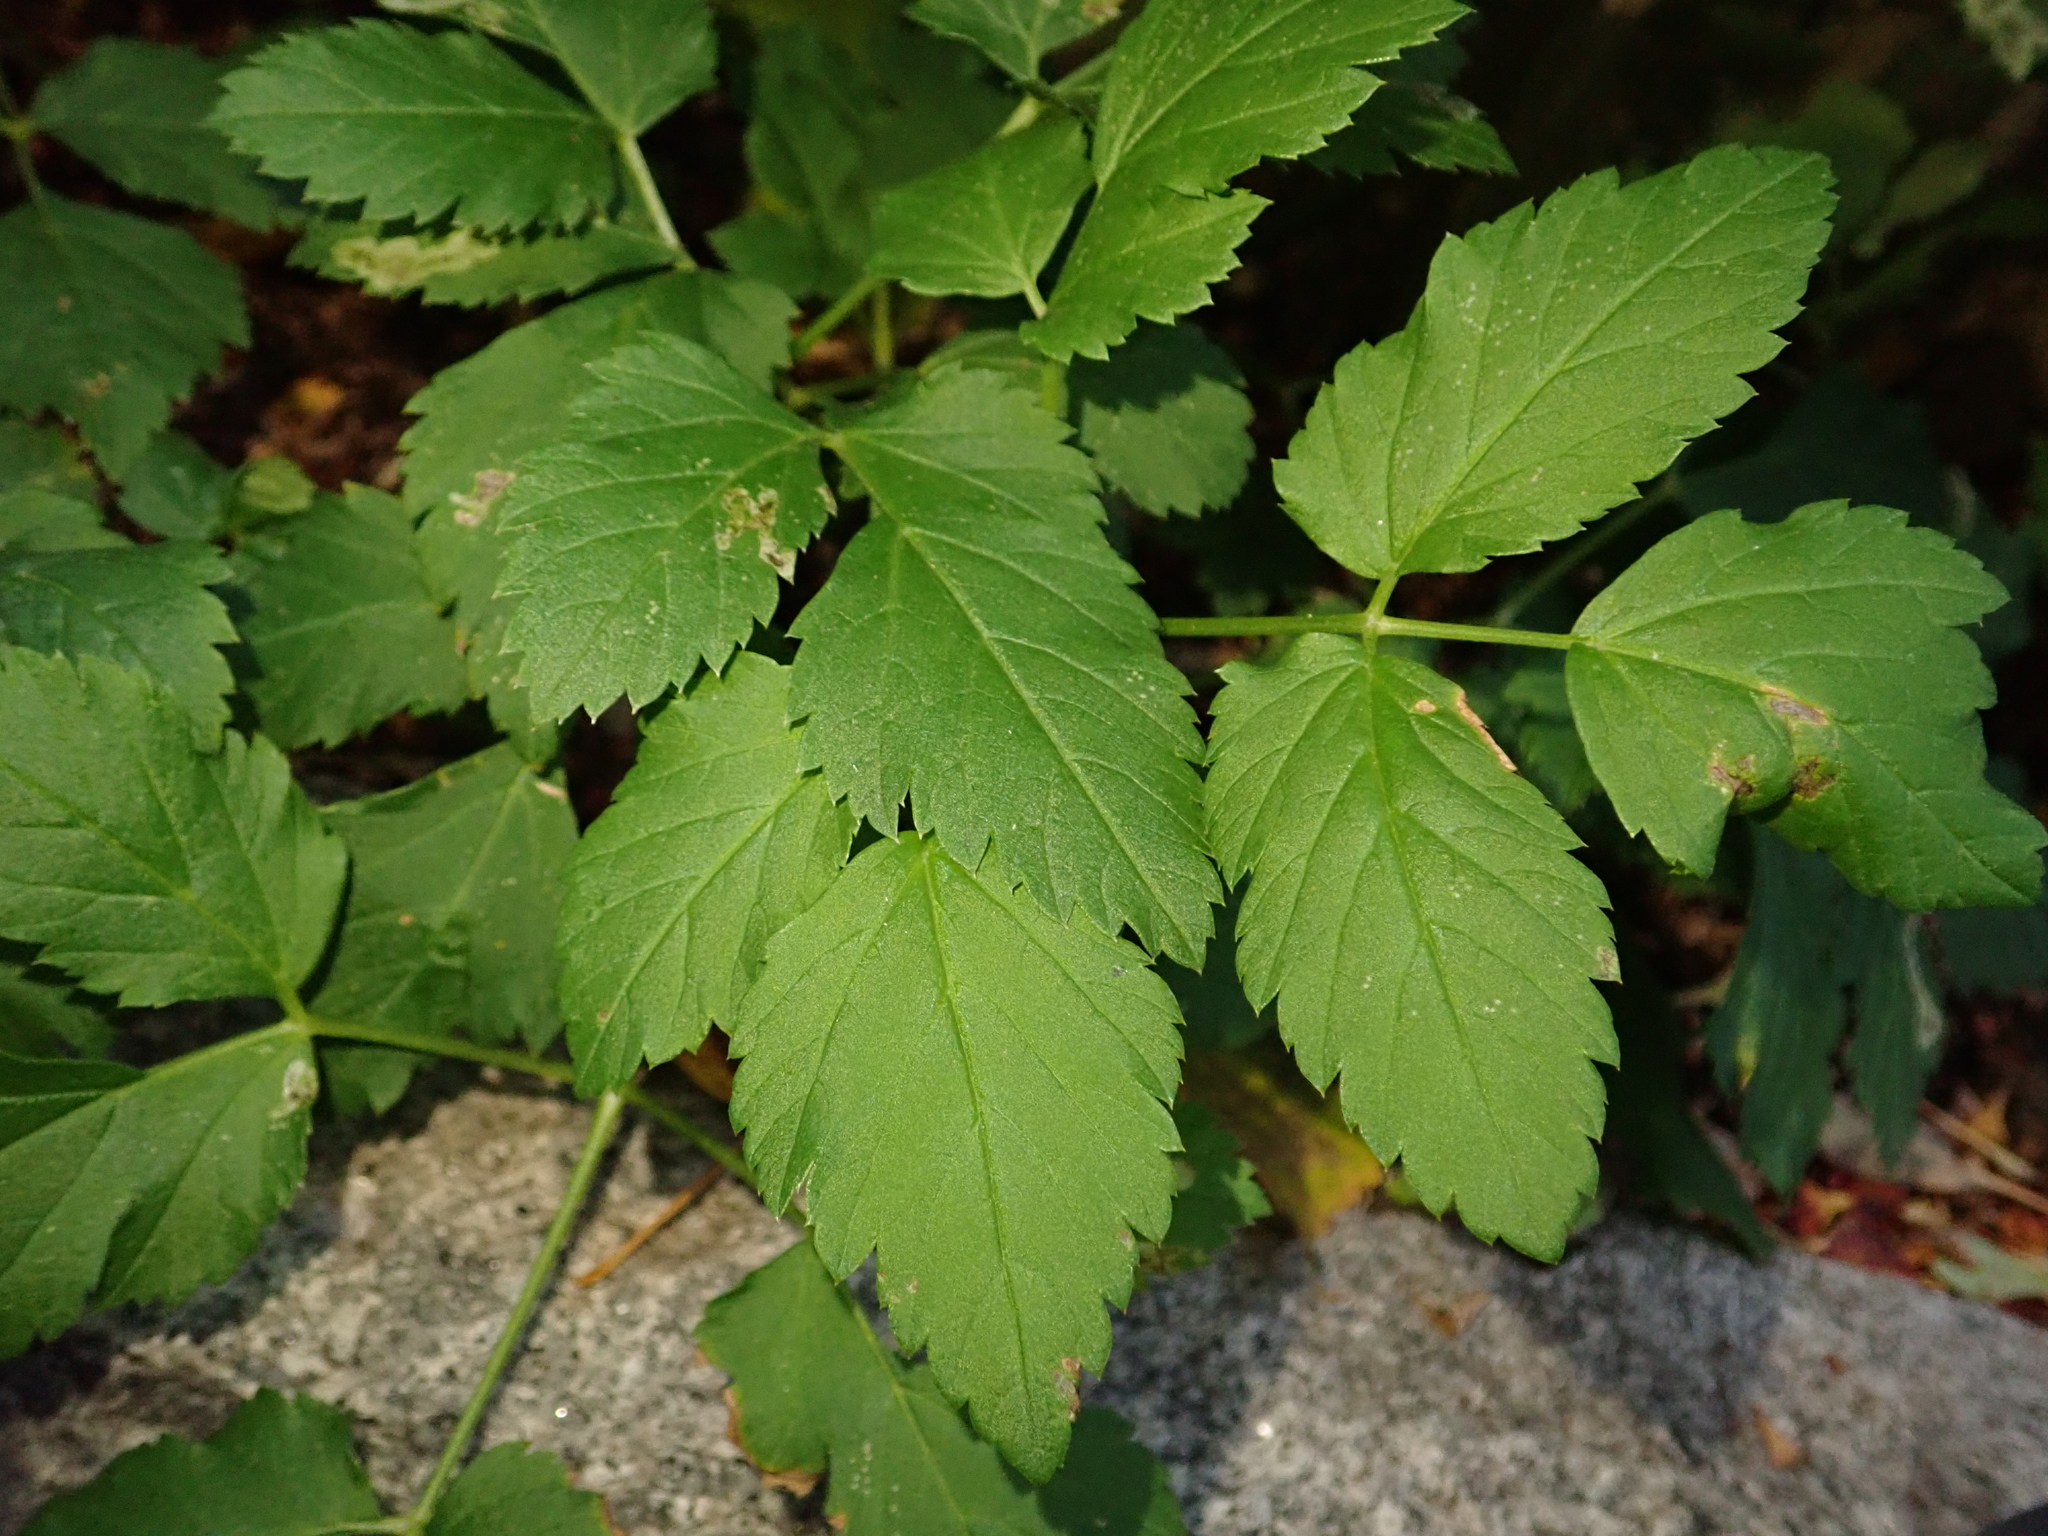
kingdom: Plantae
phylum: Tracheophyta
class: Magnoliopsida
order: Apiales
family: Apiaceae
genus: Aegopodium
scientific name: Aegopodium podagraria
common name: Ground-elder
